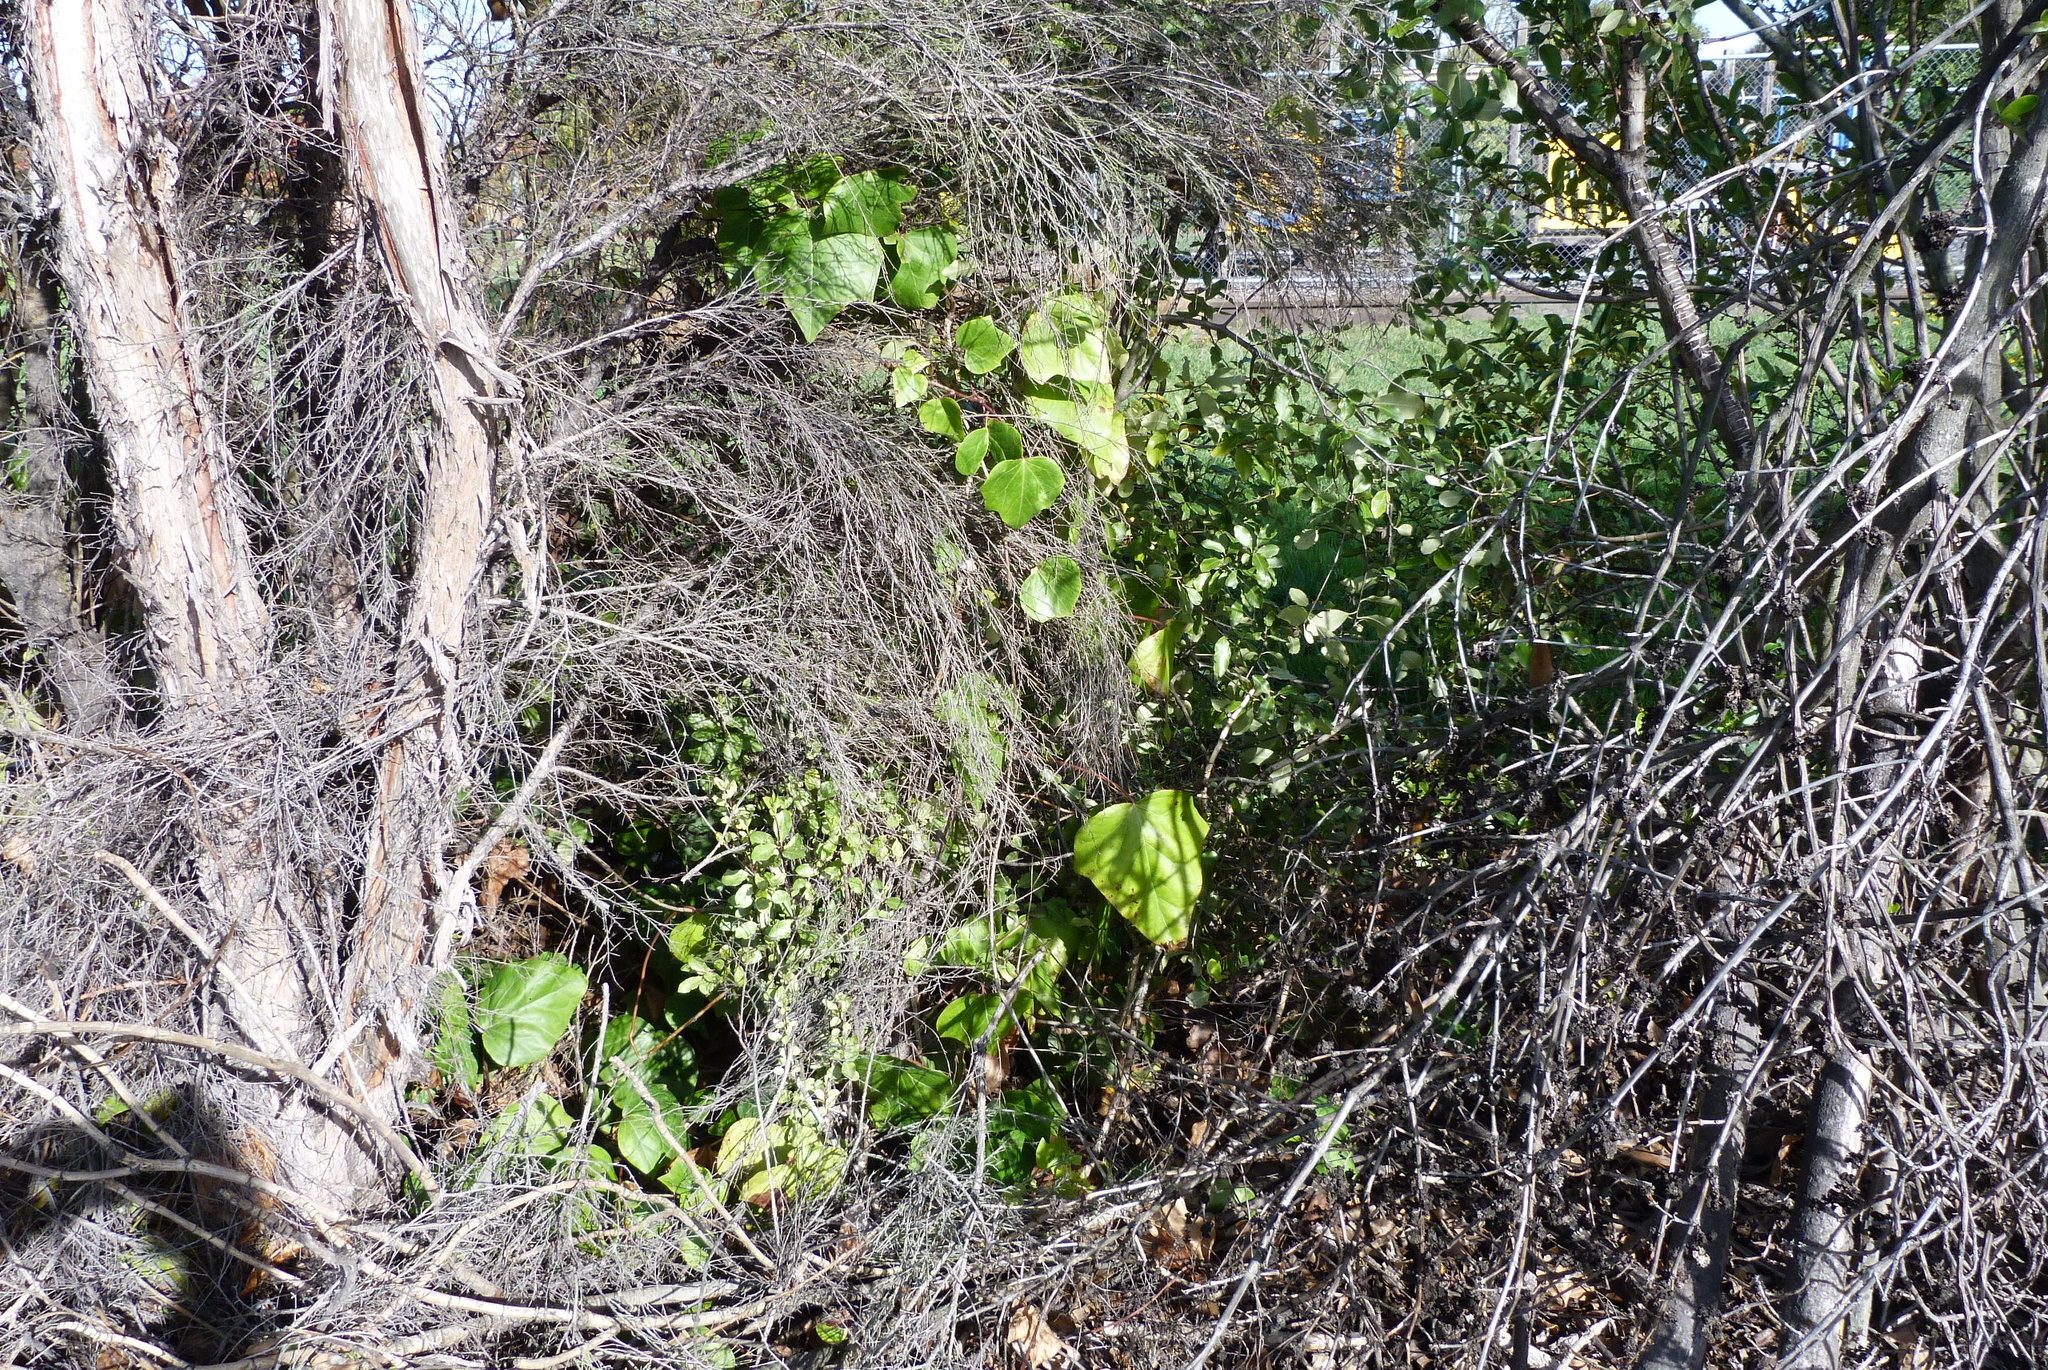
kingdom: Plantae
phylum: Tracheophyta
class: Magnoliopsida
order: Apiales
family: Araliaceae
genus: Hedera
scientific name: Hedera helix
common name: Ivy
